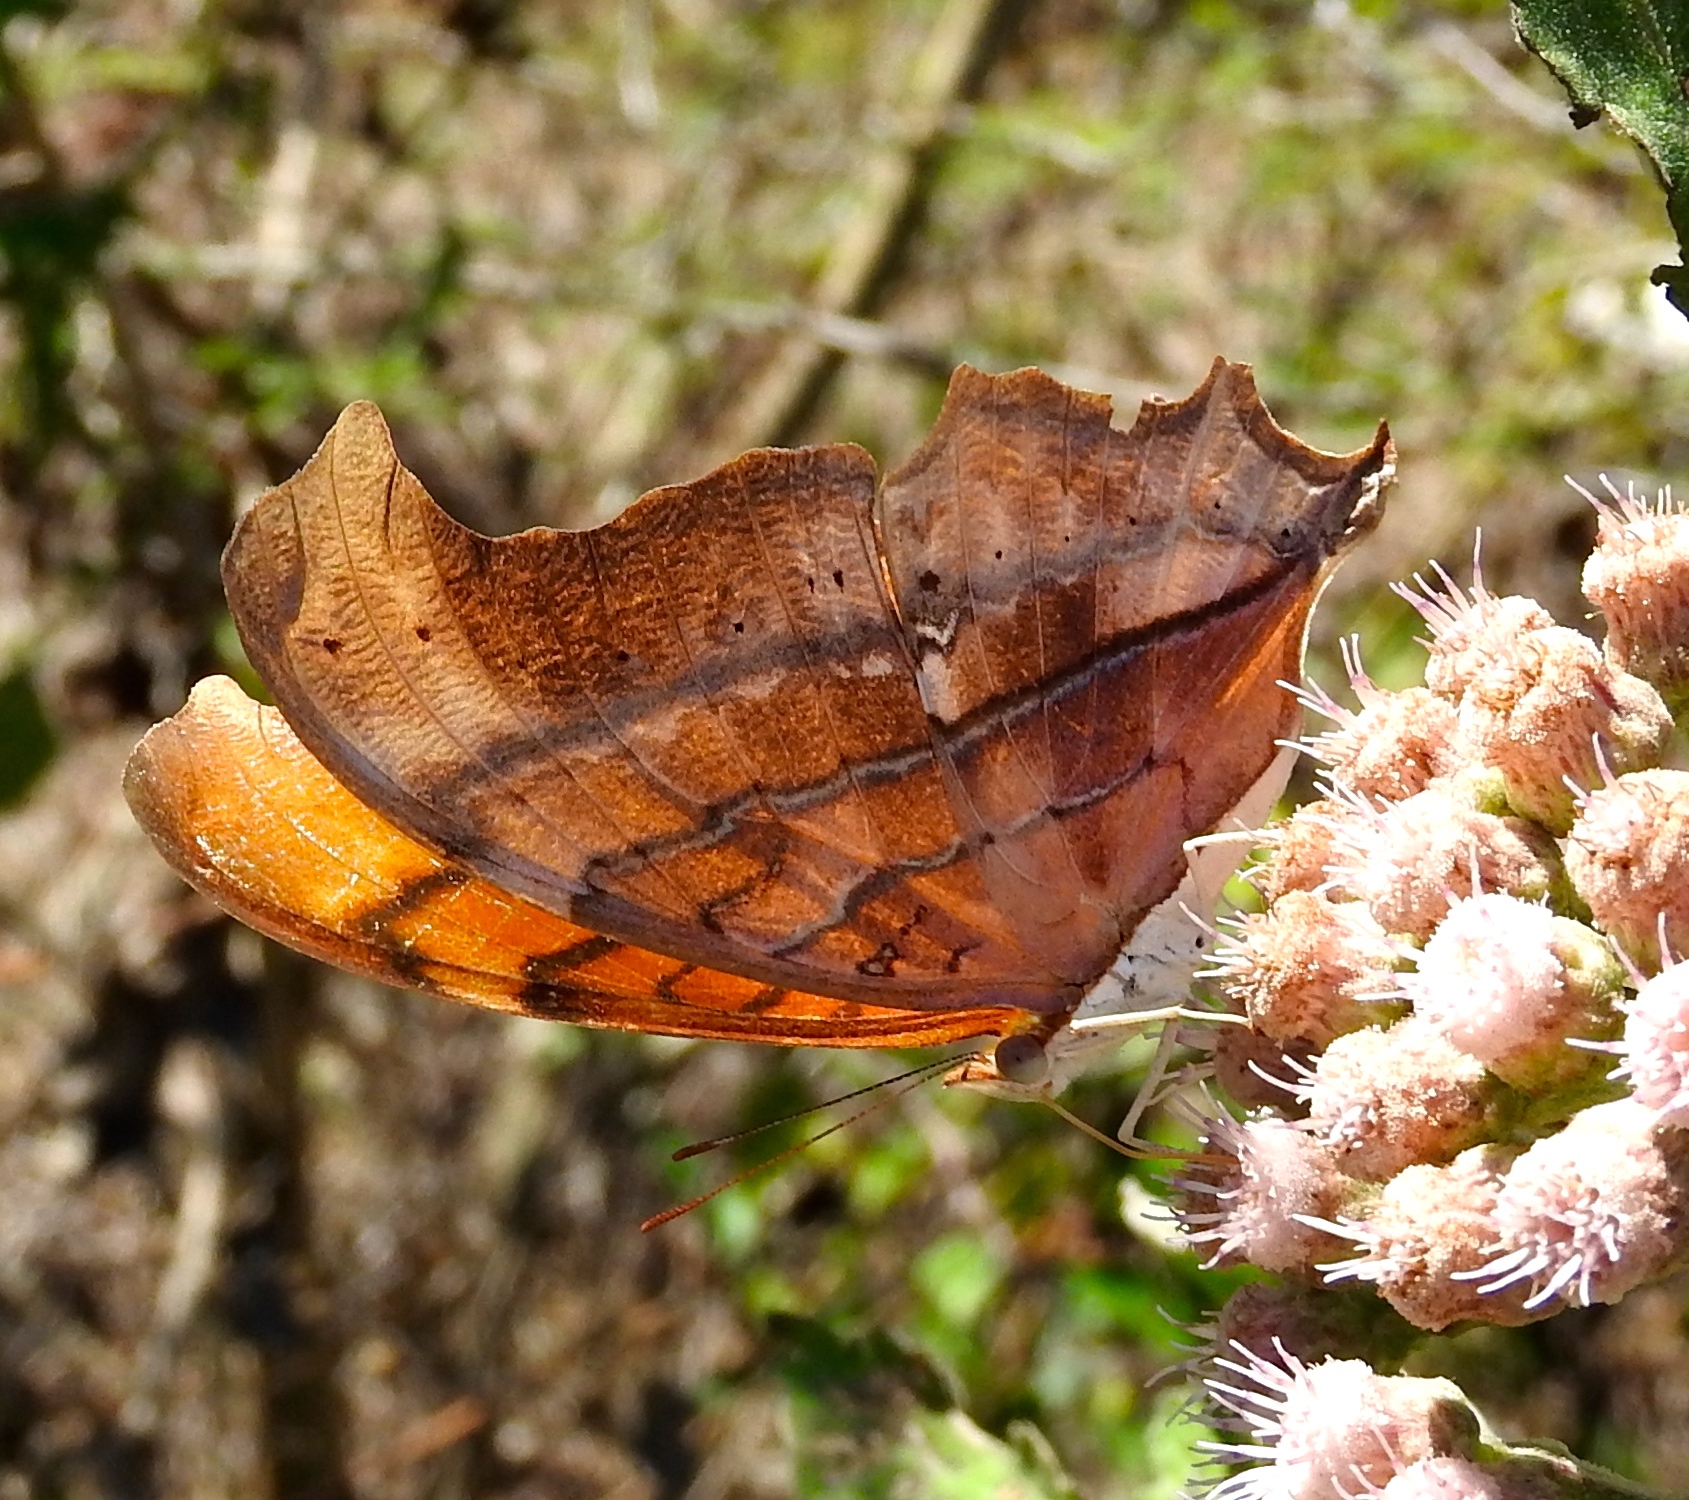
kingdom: Animalia
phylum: Arthropoda
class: Insecta
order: Lepidoptera
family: Nymphalidae
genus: Marpesia
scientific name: Marpesia petreus
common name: Red dagger wing
